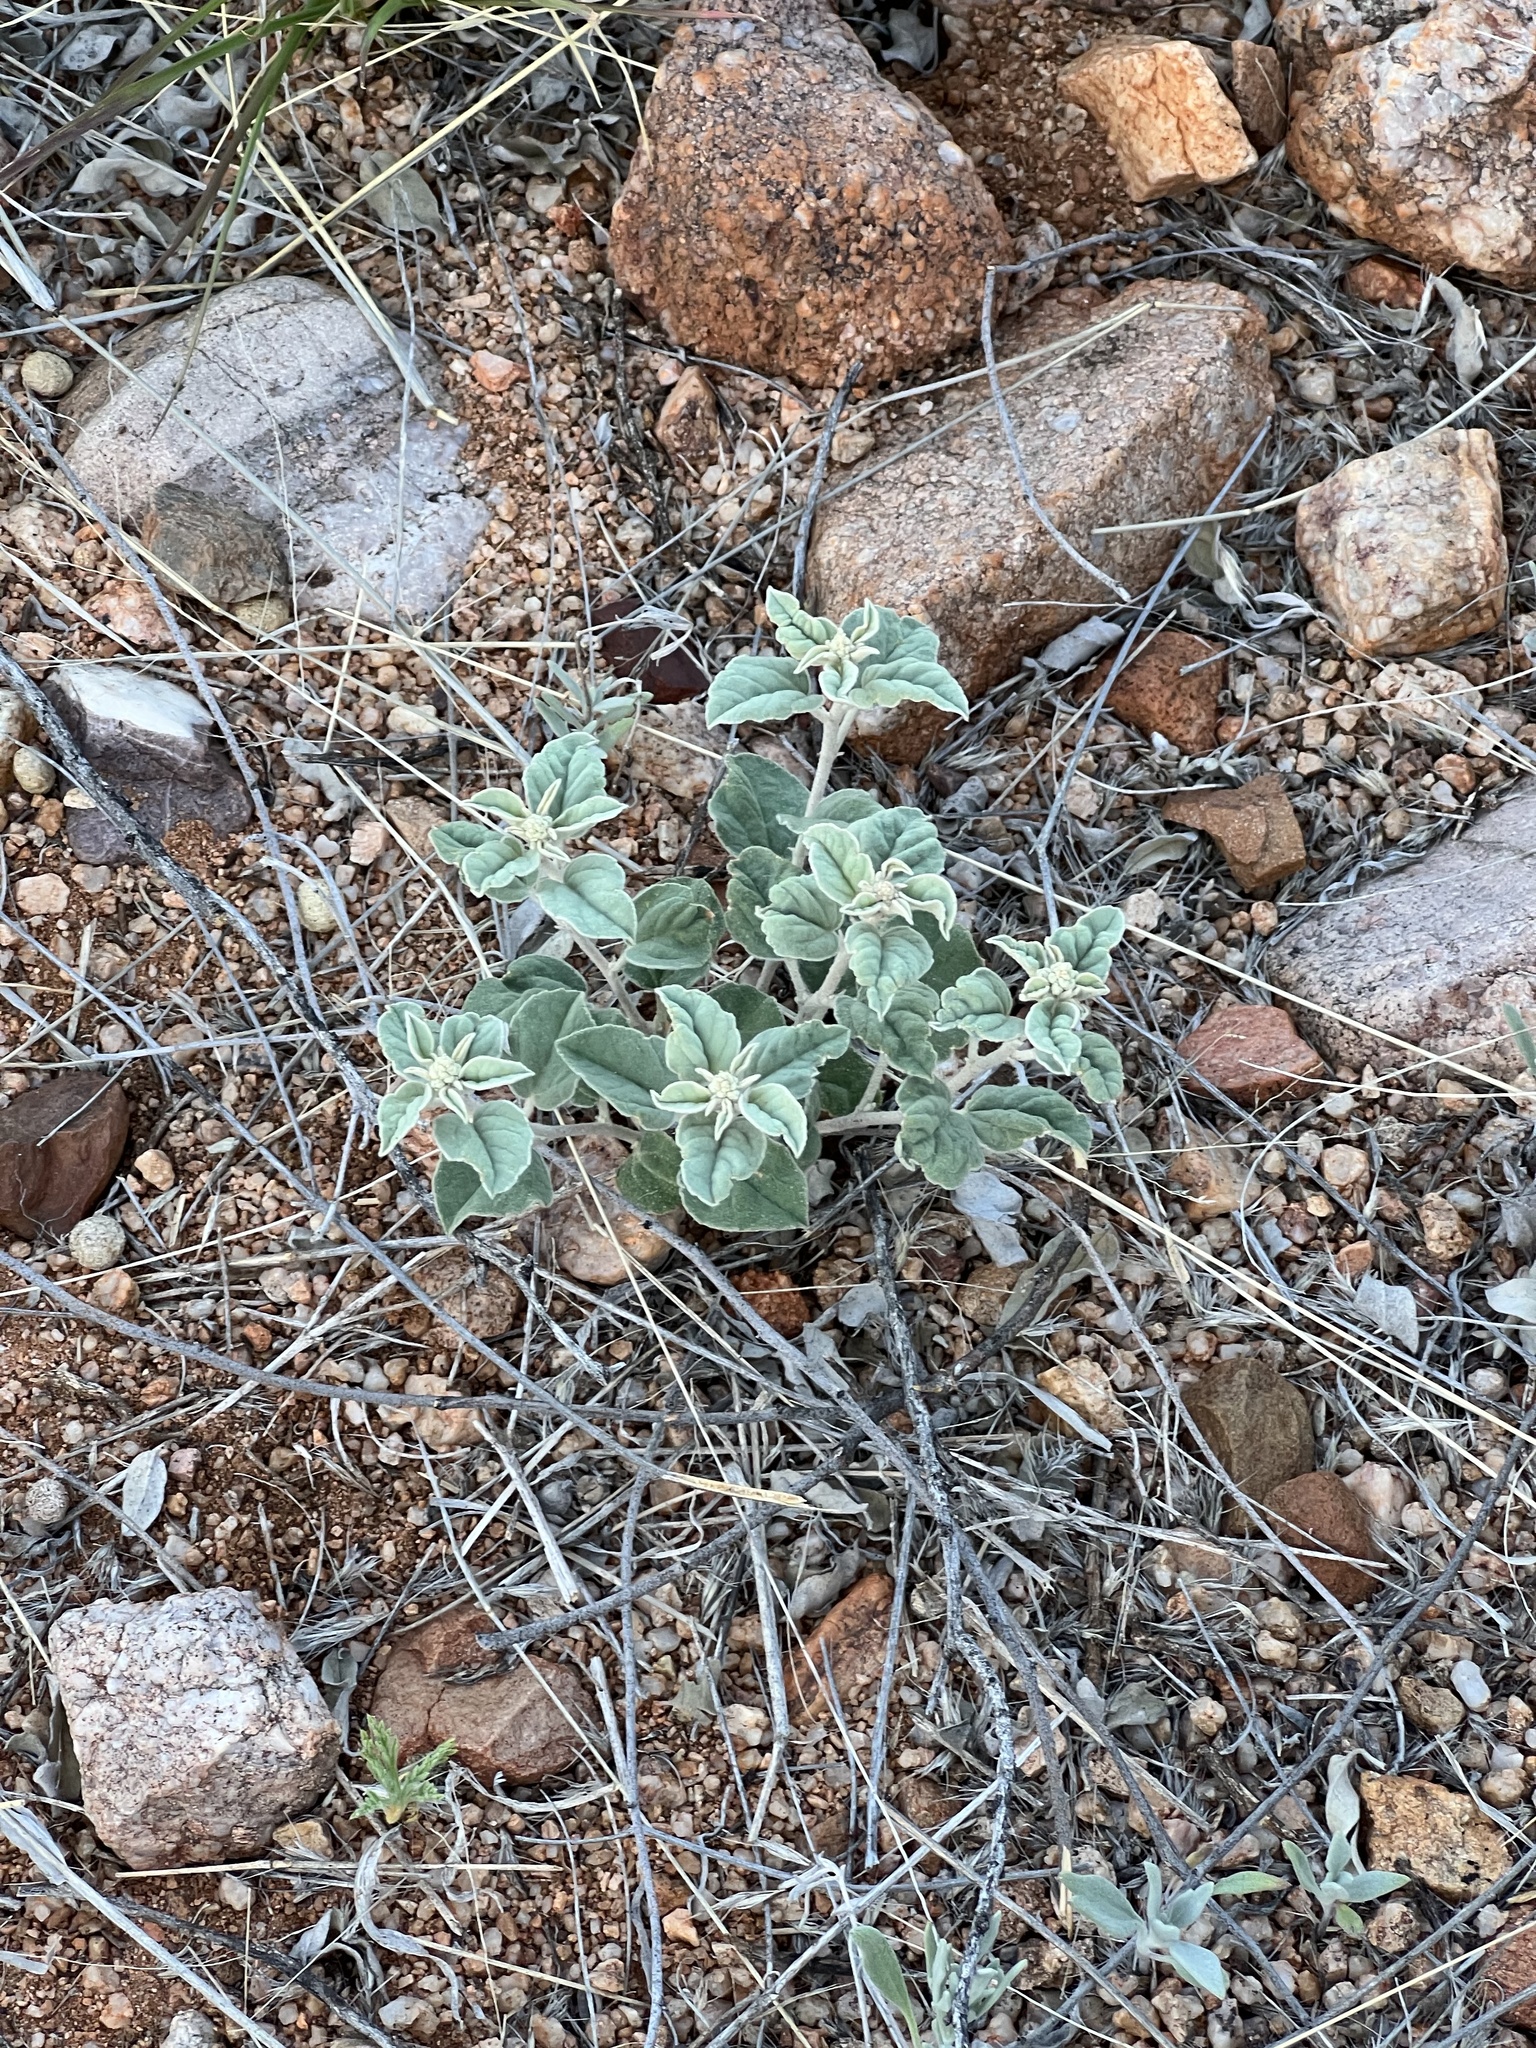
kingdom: Plantae
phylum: Tracheophyta
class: Magnoliopsida
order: Malpighiales
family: Euphorbiaceae
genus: Croton
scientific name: Croton pottsii
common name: Leatherweed
